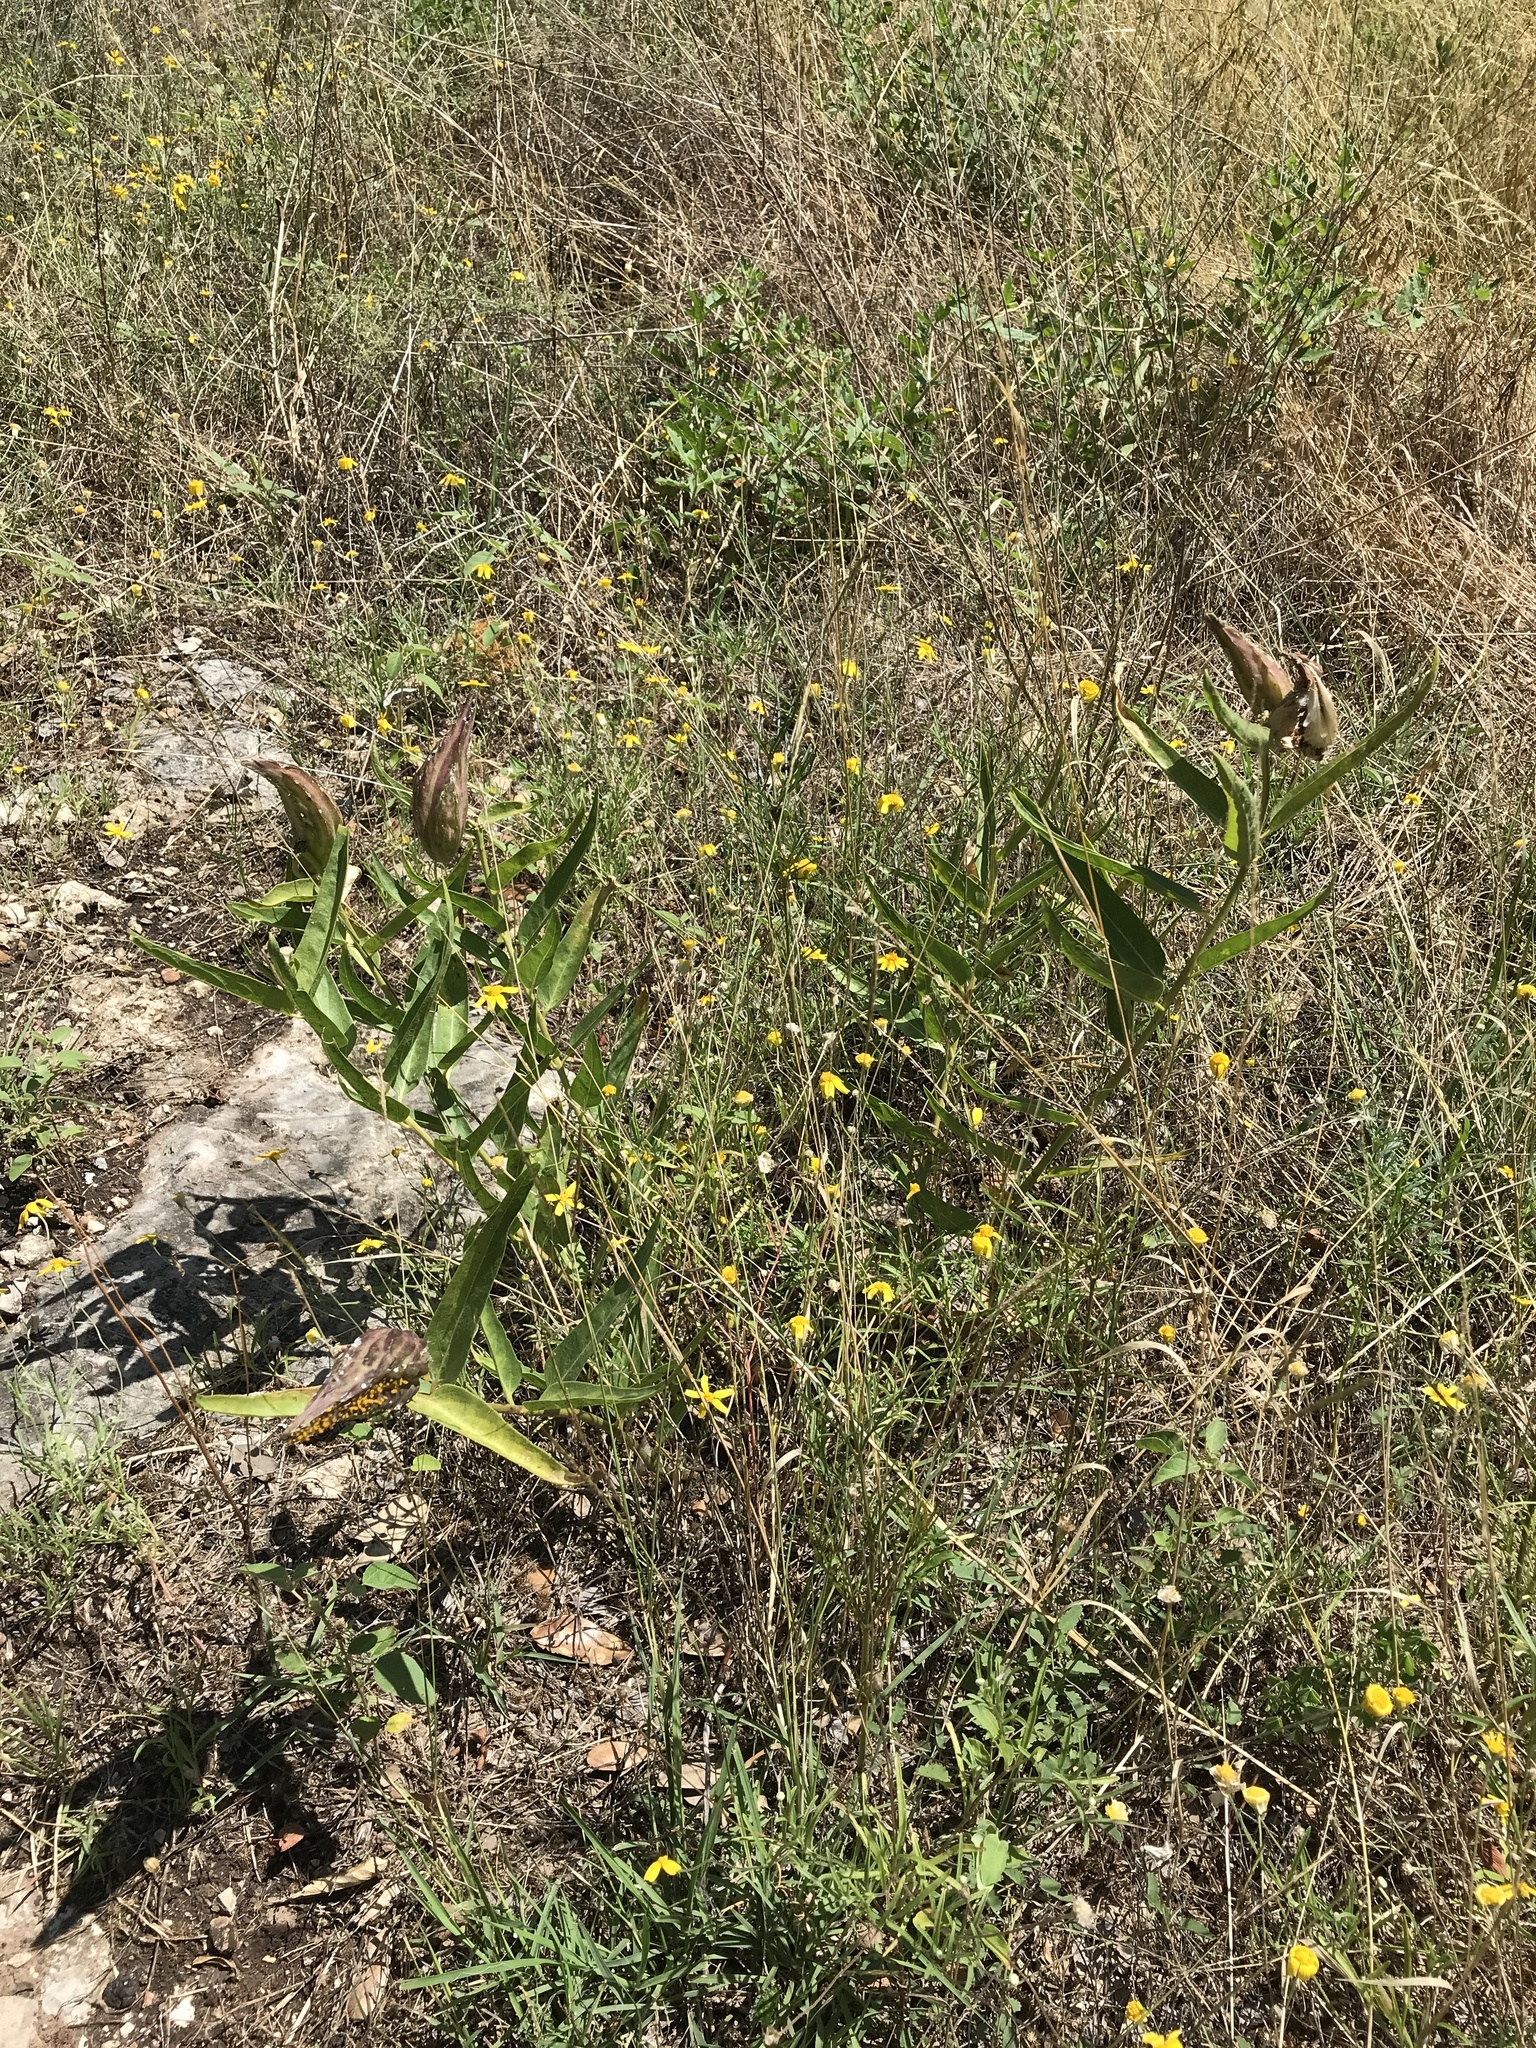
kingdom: Plantae
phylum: Tracheophyta
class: Magnoliopsida
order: Gentianales
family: Apocynaceae
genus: Asclepias
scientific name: Asclepias asperula
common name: Antelope horns
